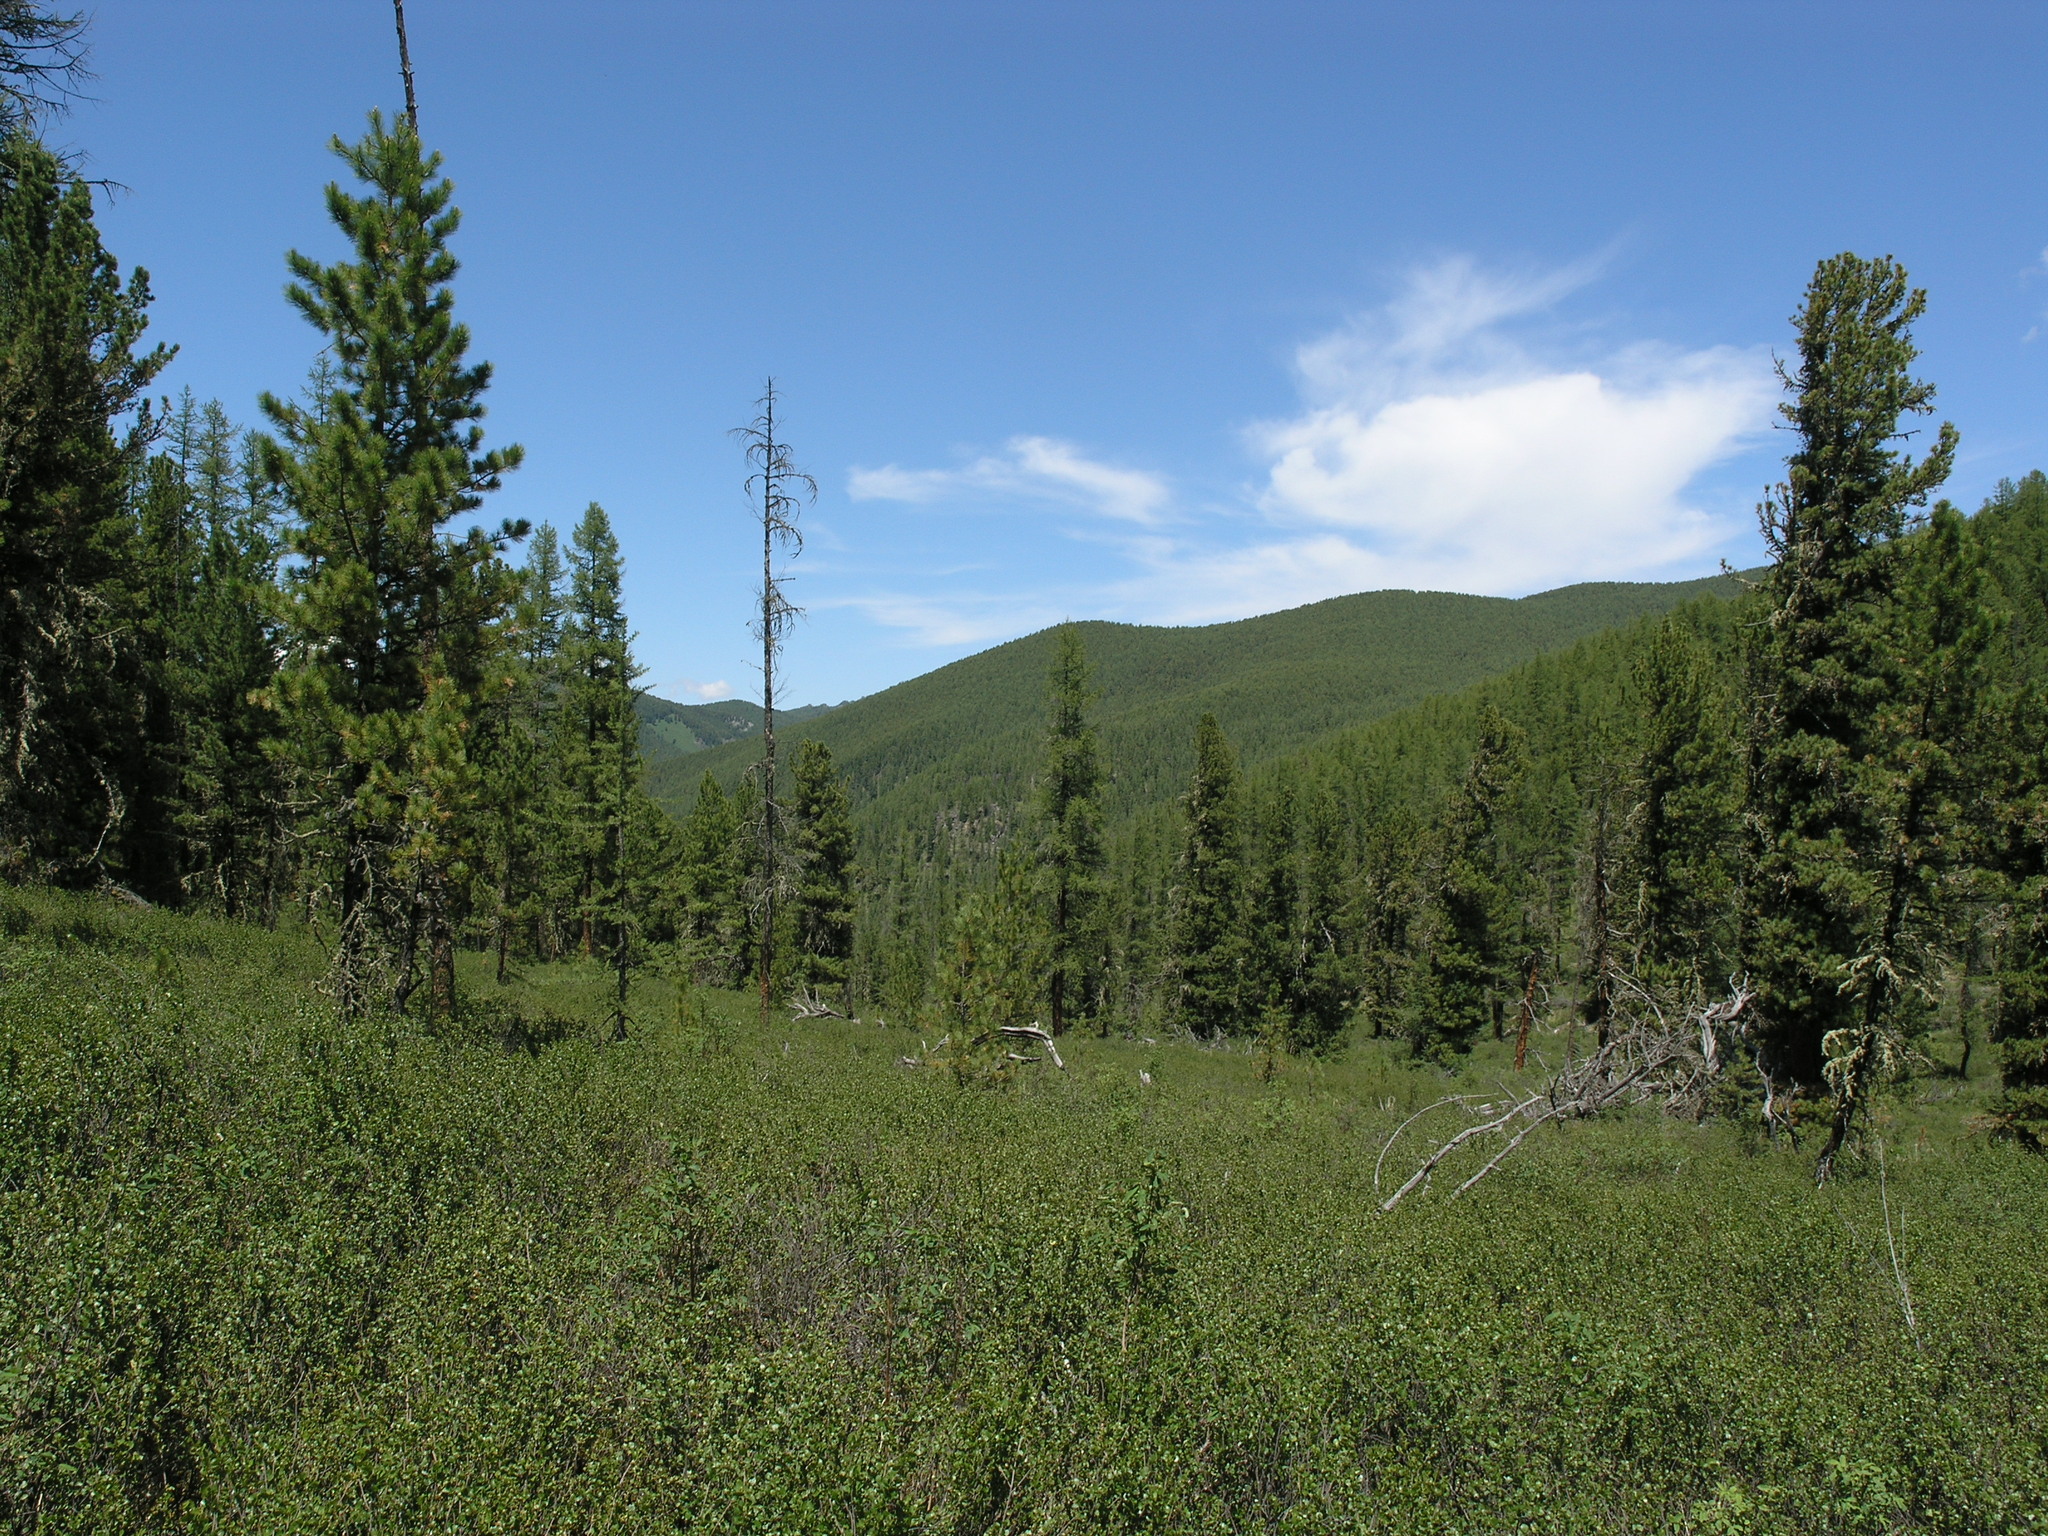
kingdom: Plantae
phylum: Tracheophyta
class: Pinopsida
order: Pinales
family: Pinaceae
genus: Pinus
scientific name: Pinus sibirica
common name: Siberian pine
